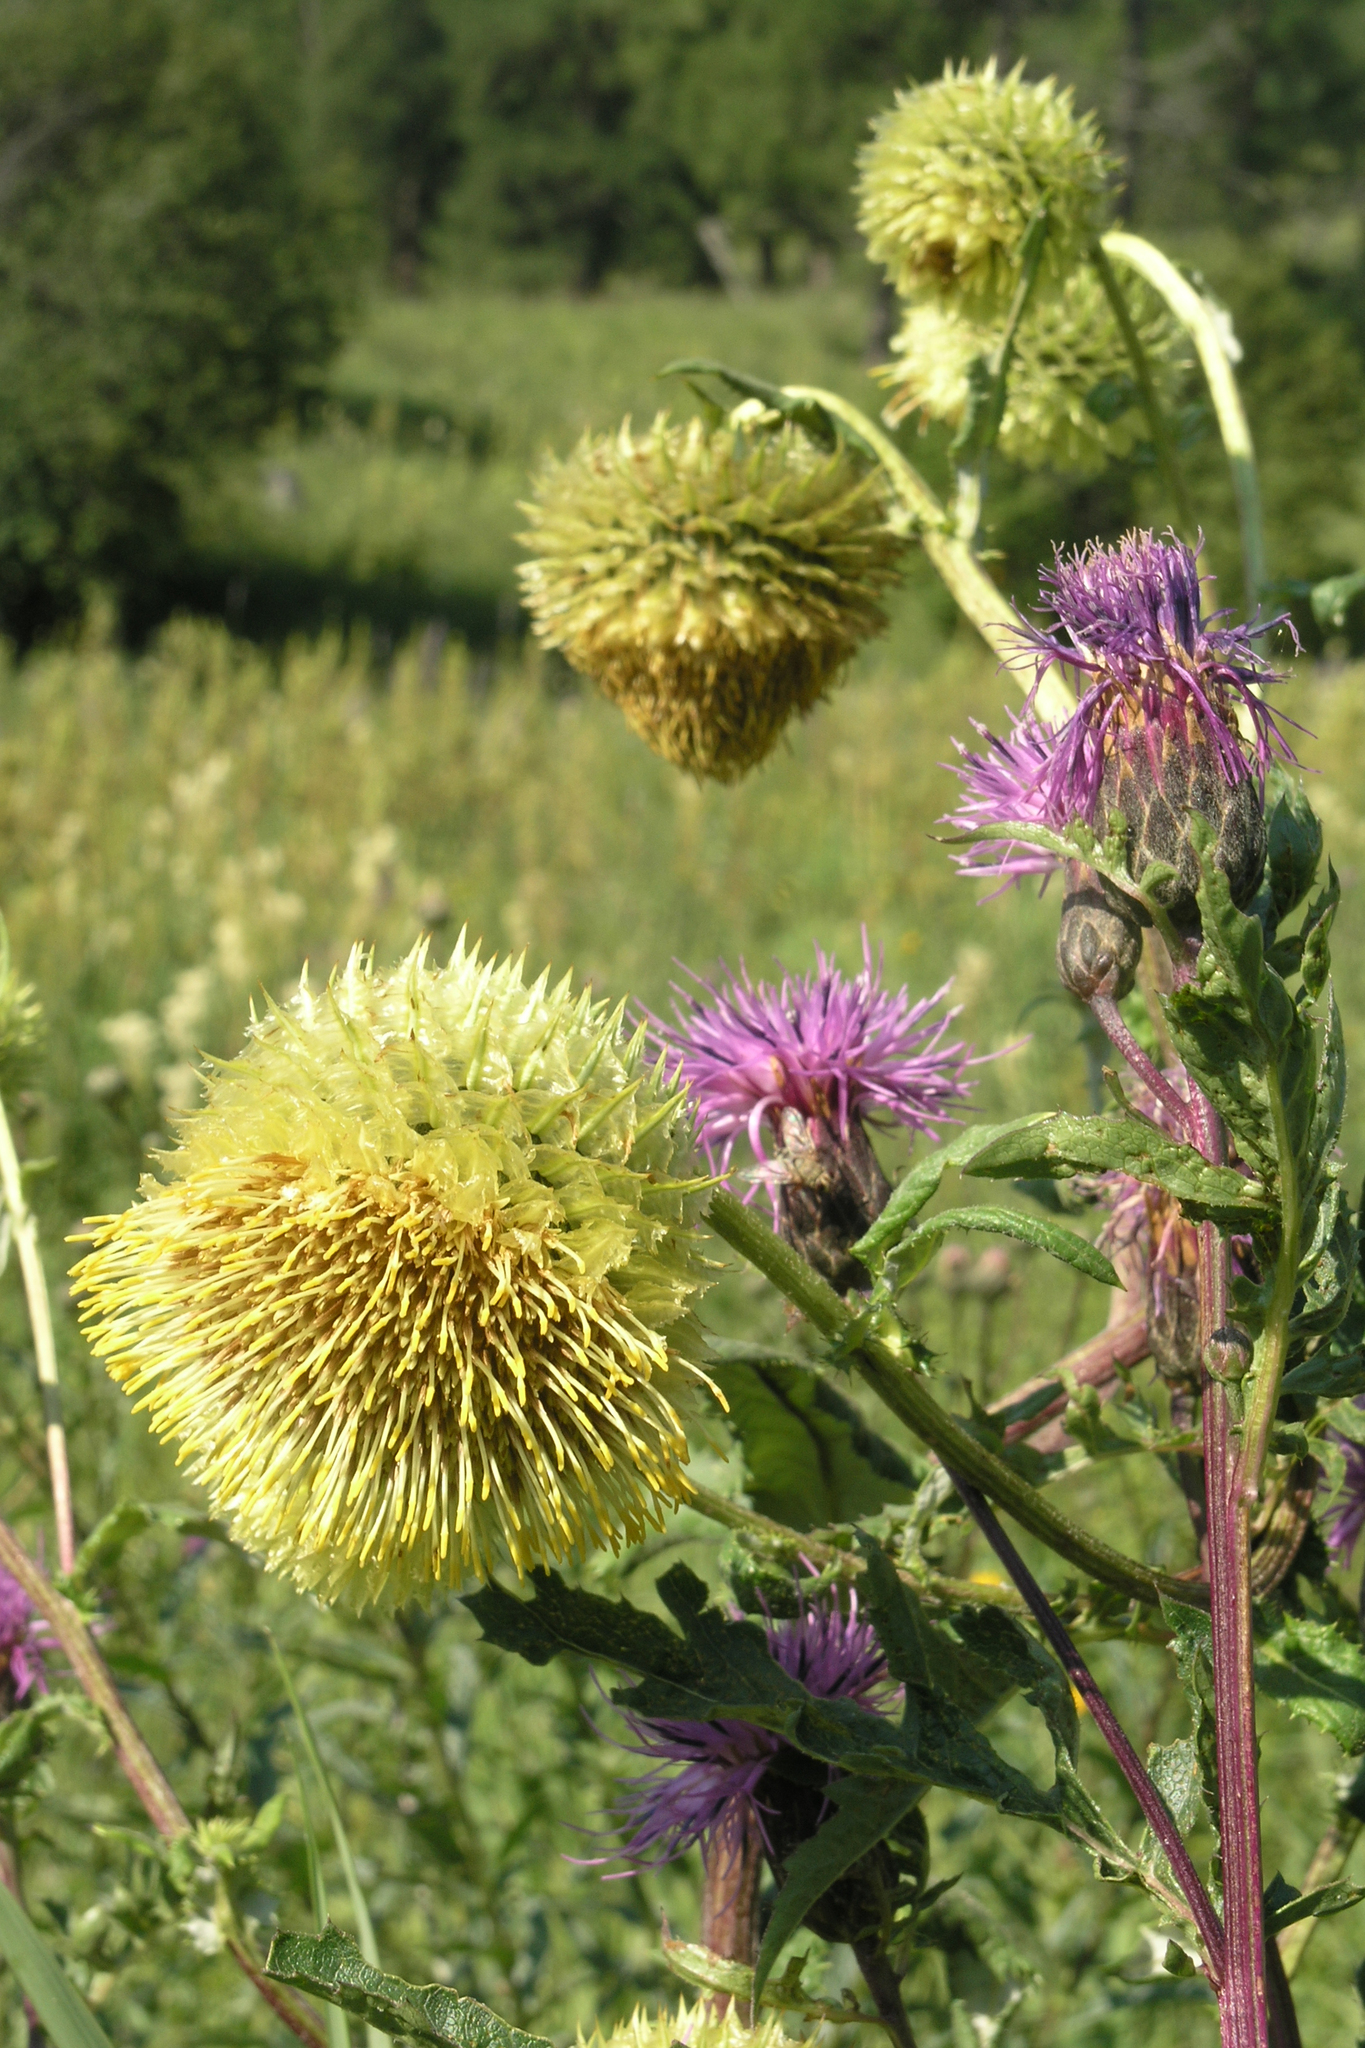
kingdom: Plantae
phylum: Tracheophyta
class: Magnoliopsida
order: Asterales
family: Asteraceae
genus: Alfredia
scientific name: Alfredia cernua
